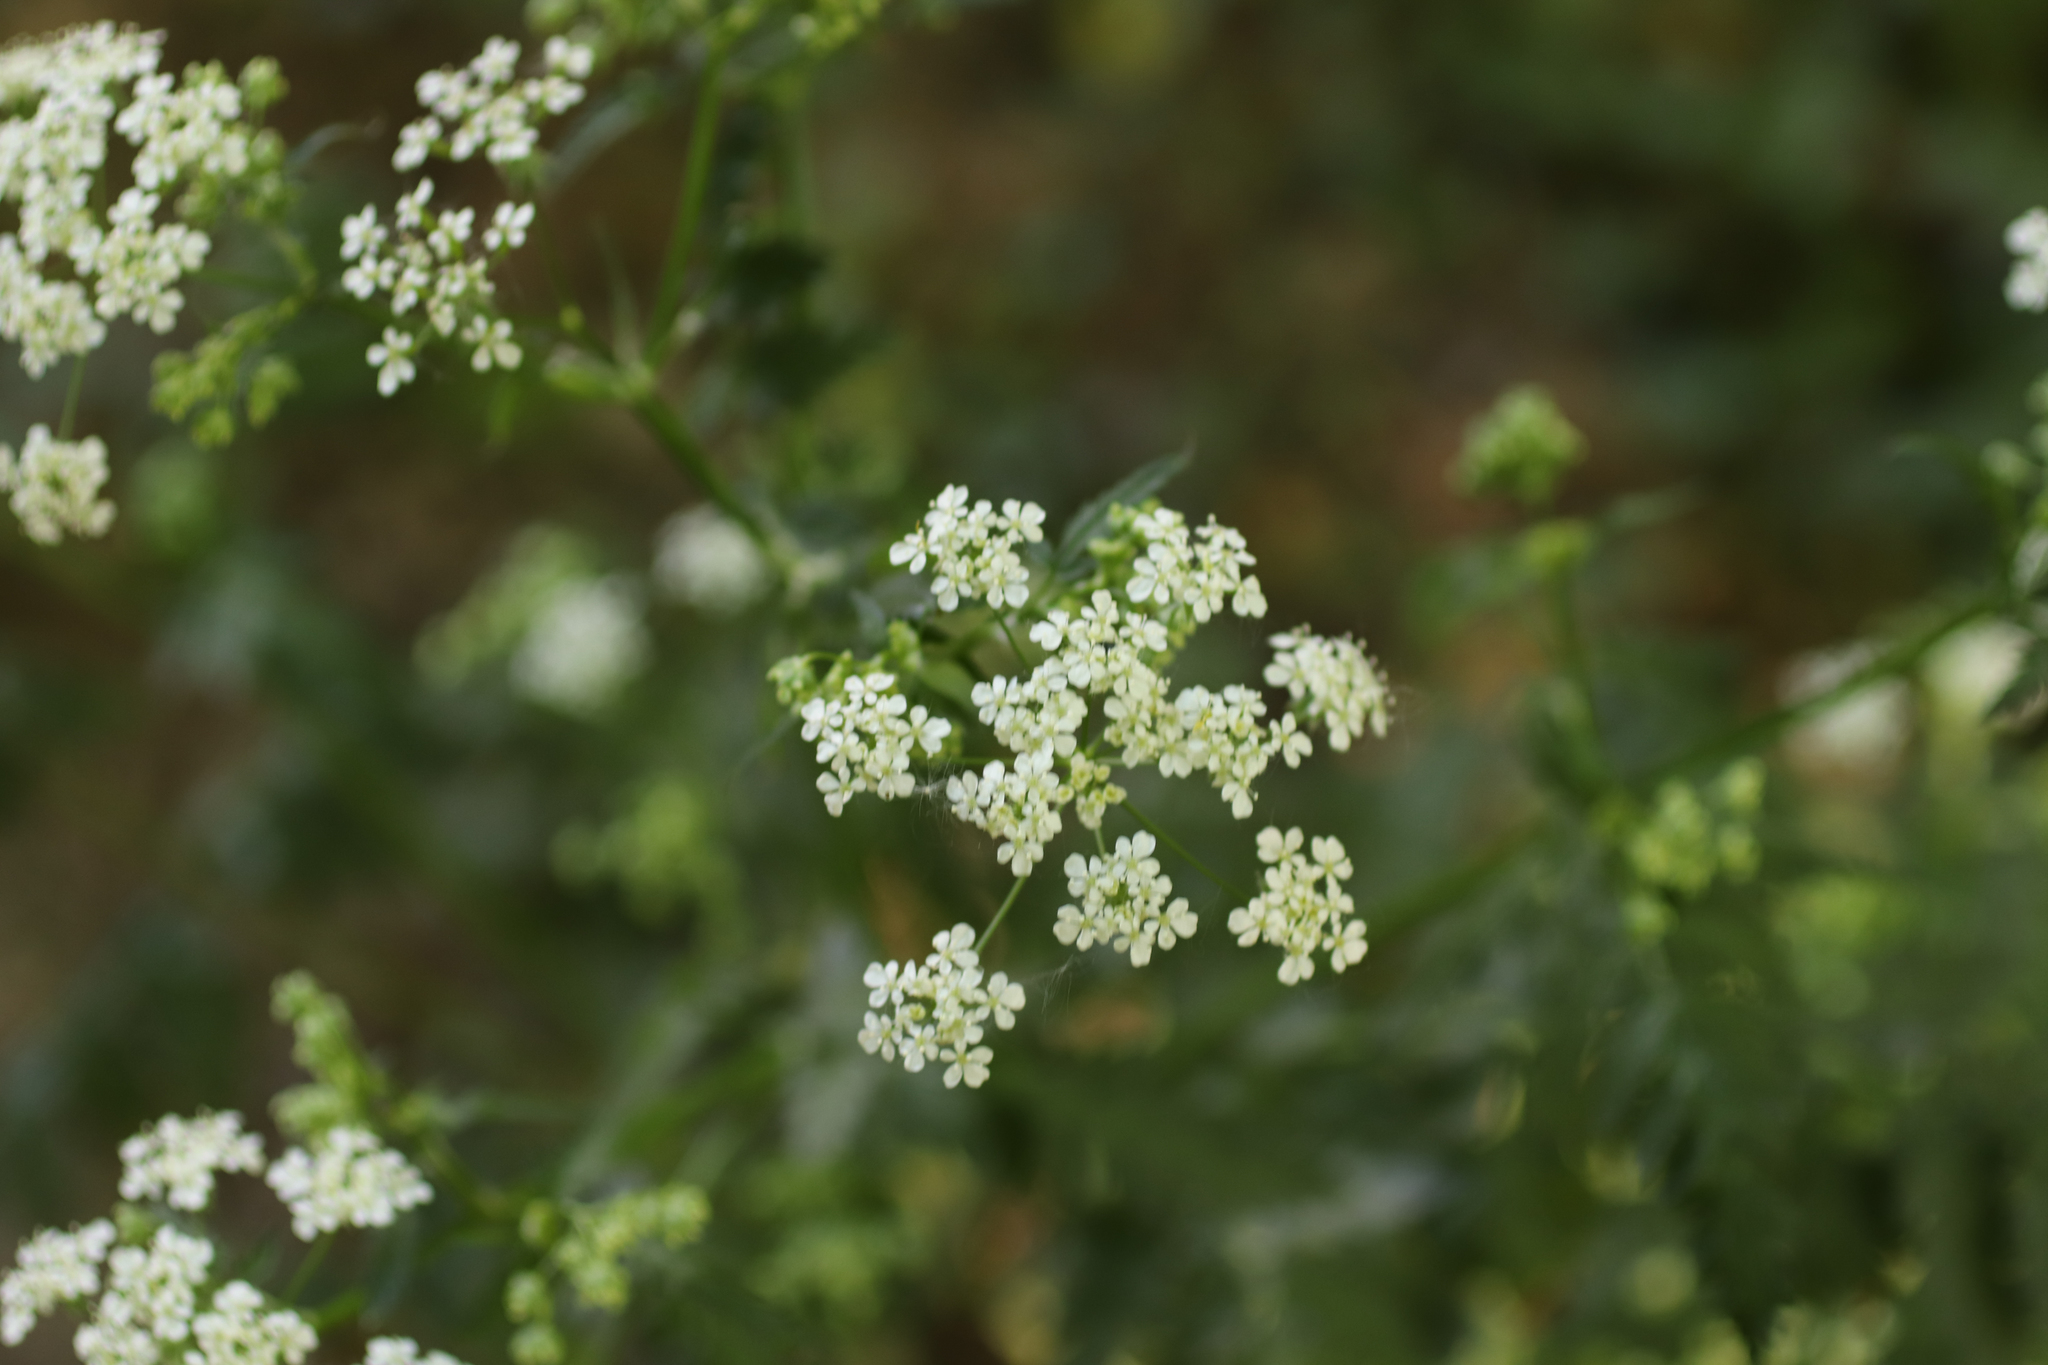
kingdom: Plantae
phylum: Tracheophyta
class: Magnoliopsida
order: Apiales
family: Apiaceae
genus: Anthriscus
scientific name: Anthriscus sylvestris
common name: Cow parsley
